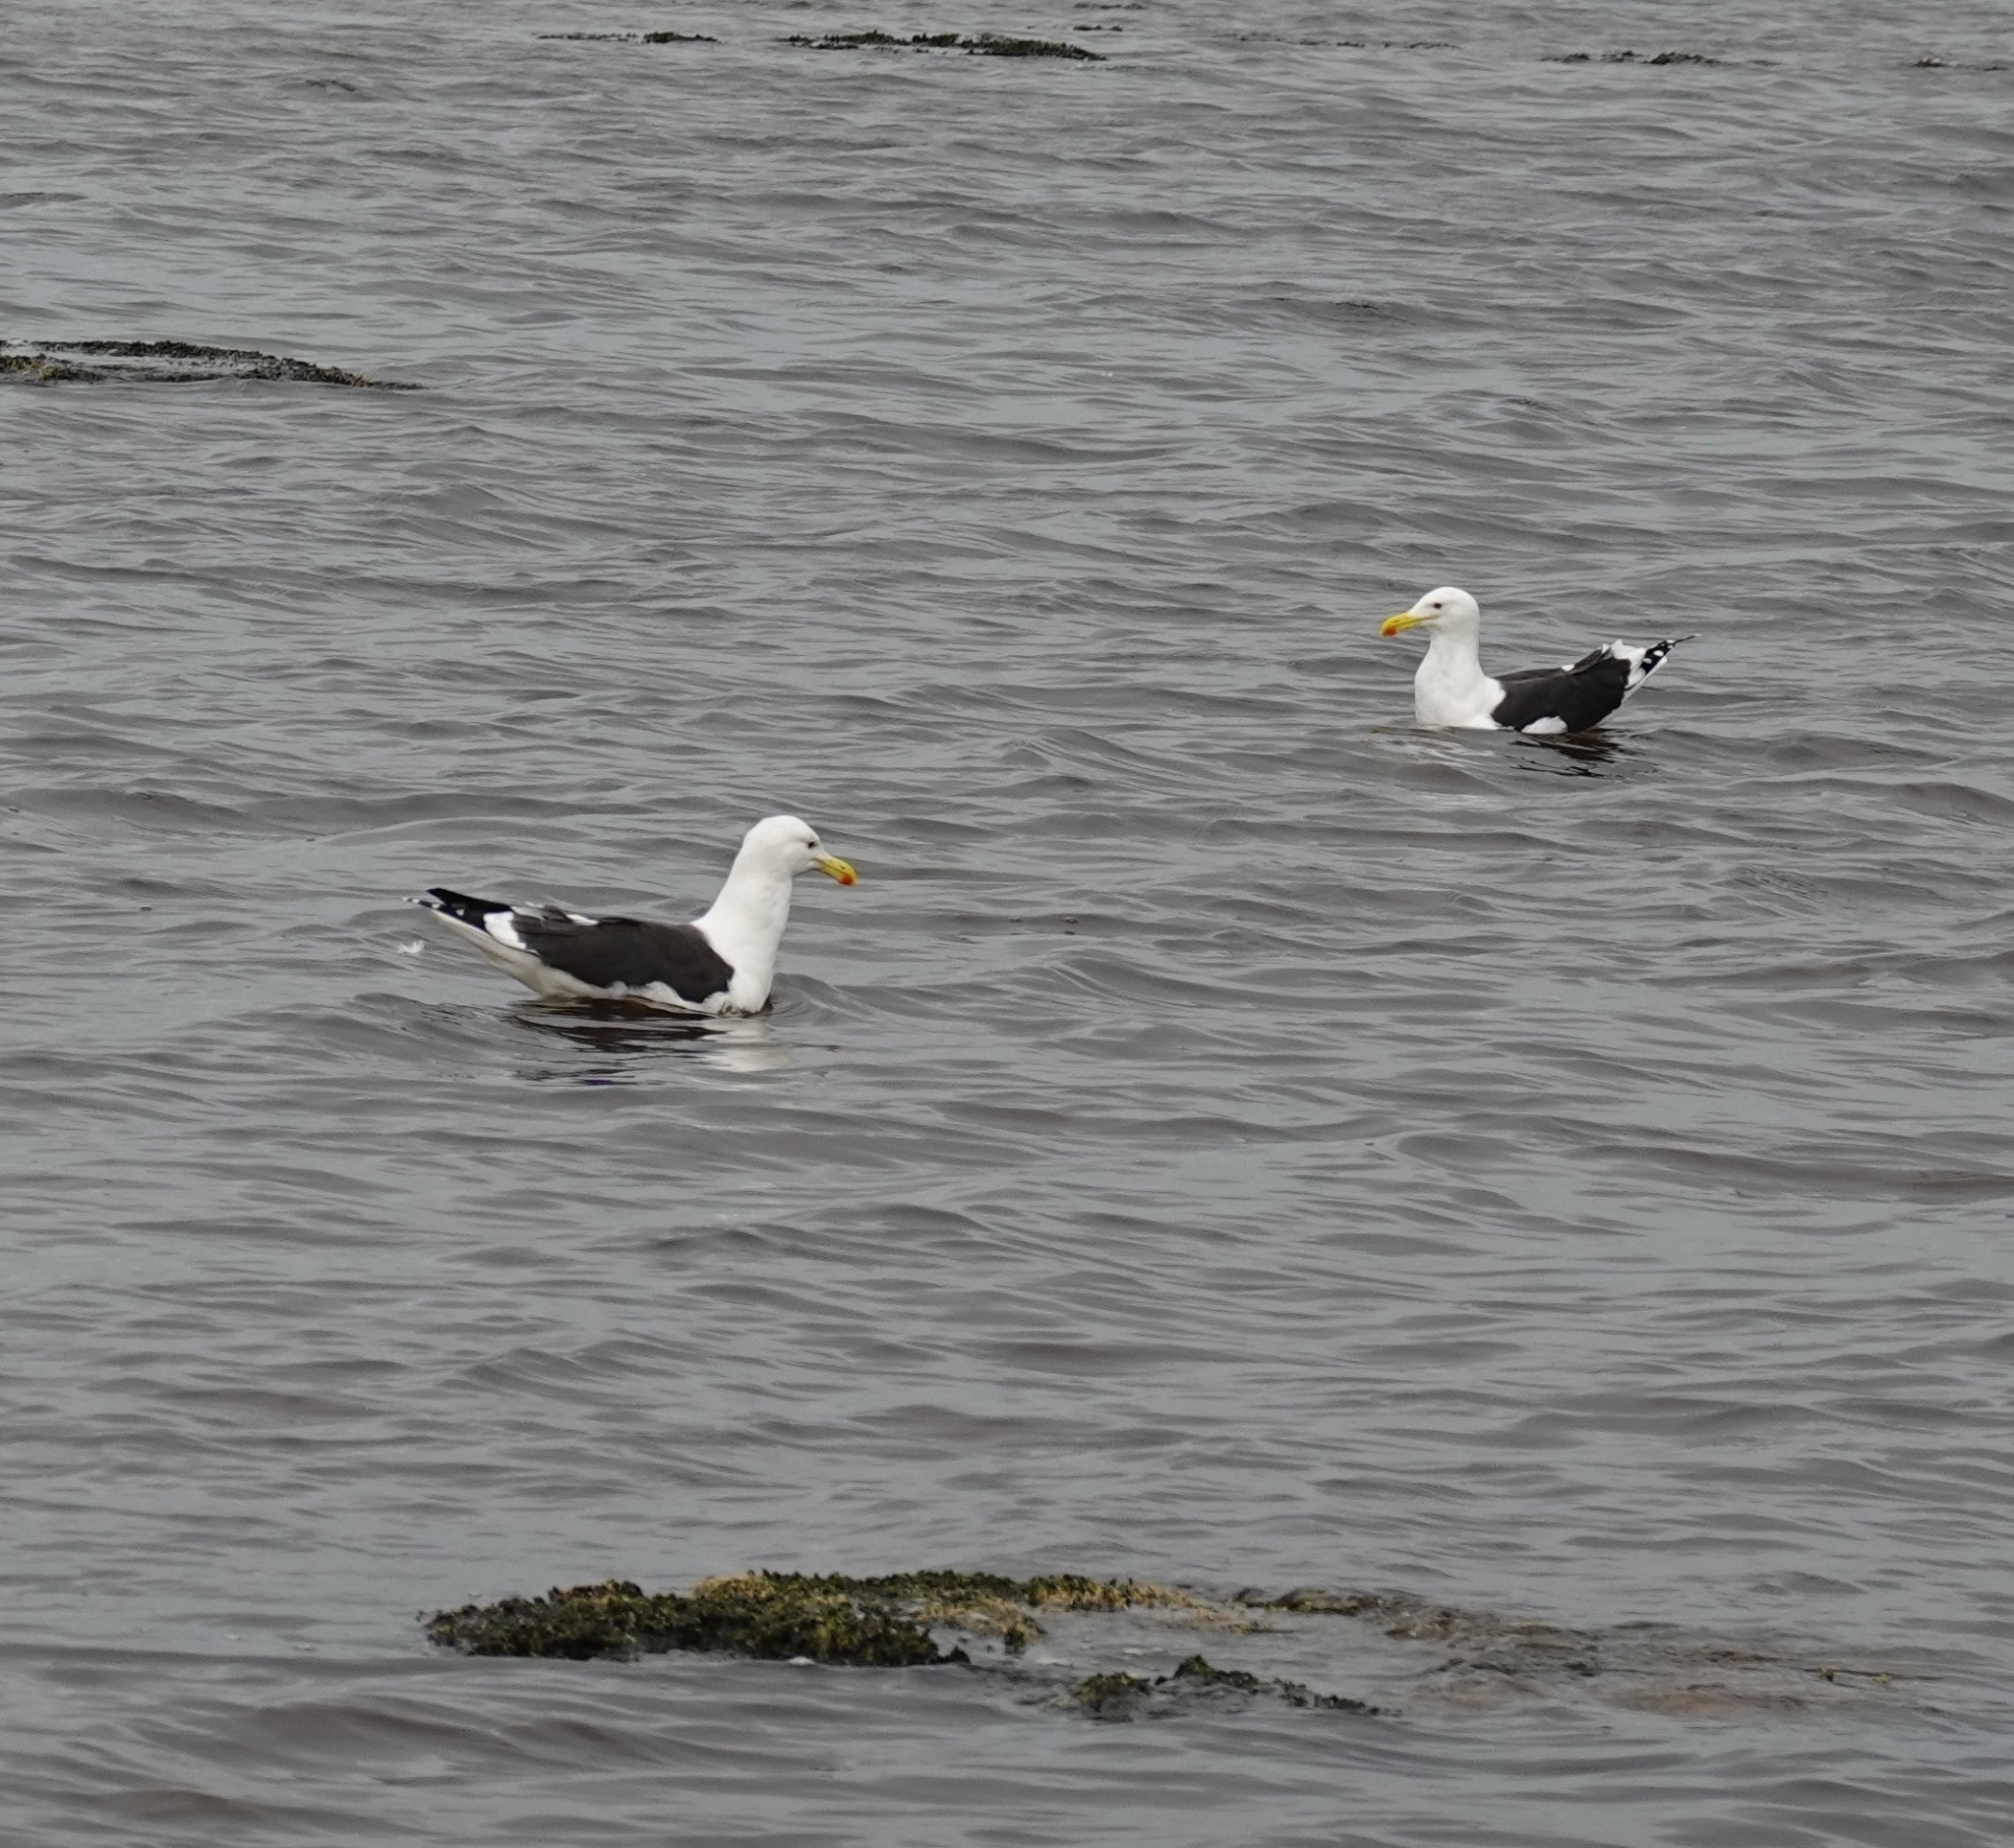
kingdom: Animalia
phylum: Chordata
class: Aves
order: Charadriiformes
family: Laridae
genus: Larus
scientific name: Larus dominicanus
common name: Kelp gull
